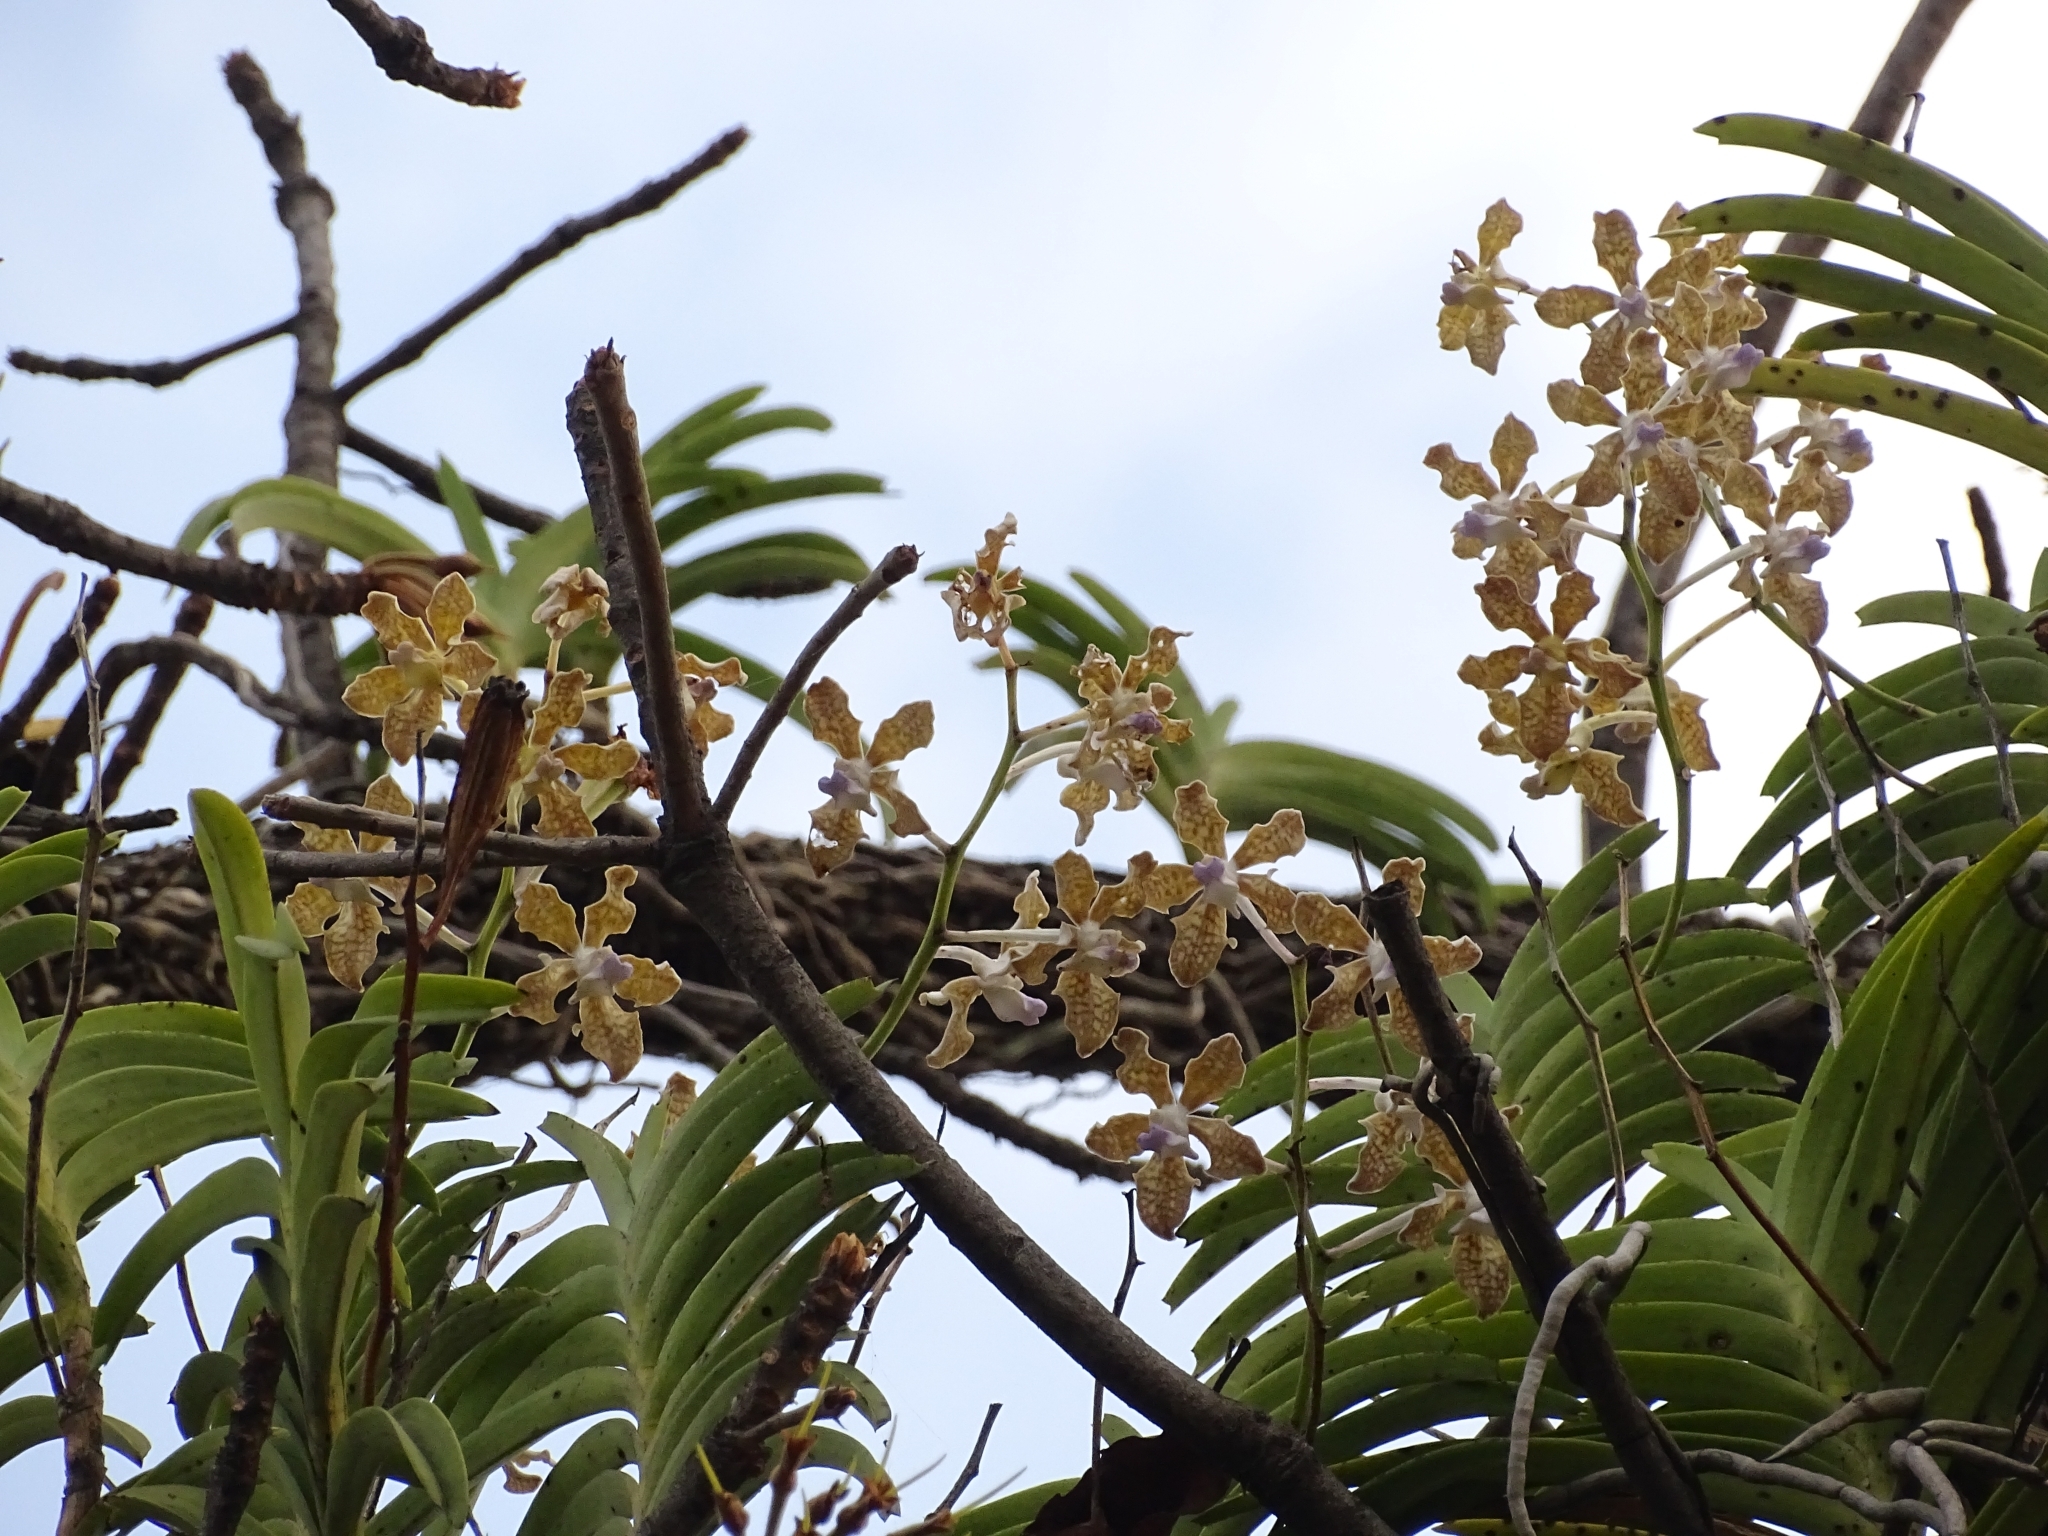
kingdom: Plantae
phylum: Tracheophyta
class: Liliopsida
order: Asparagales
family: Orchidaceae
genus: Vanda
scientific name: Vanda tessellata
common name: Grey orchid
